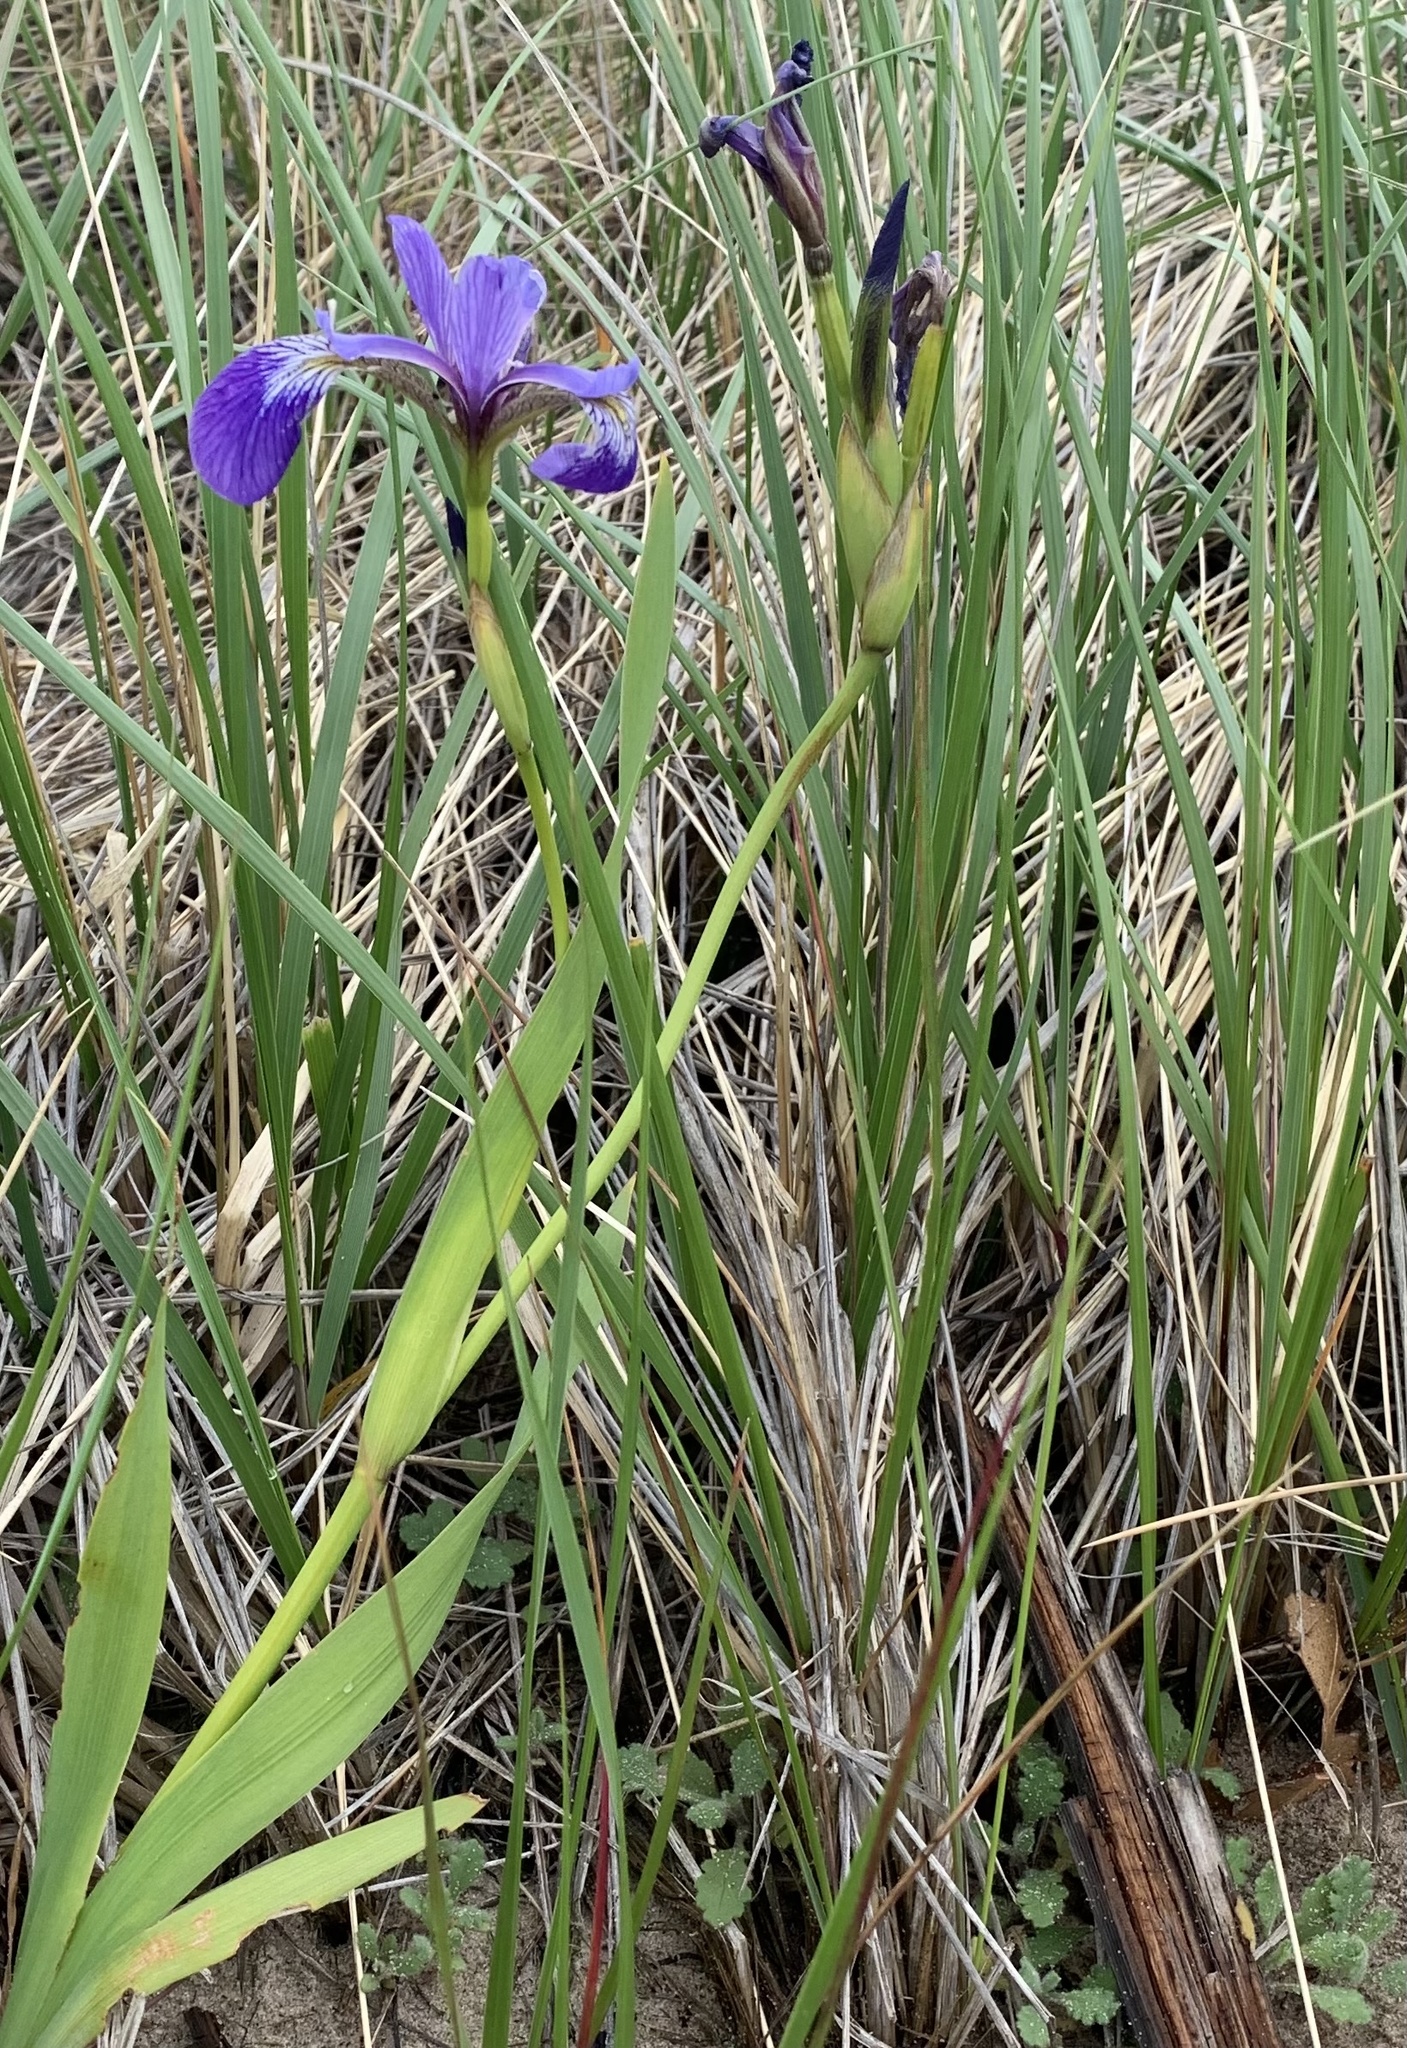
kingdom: Plantae
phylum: Tracheophyta
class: Liliopsida
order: Asparagales
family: Iridaceae
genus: Iris
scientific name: Iris versicolor
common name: Purple iris
